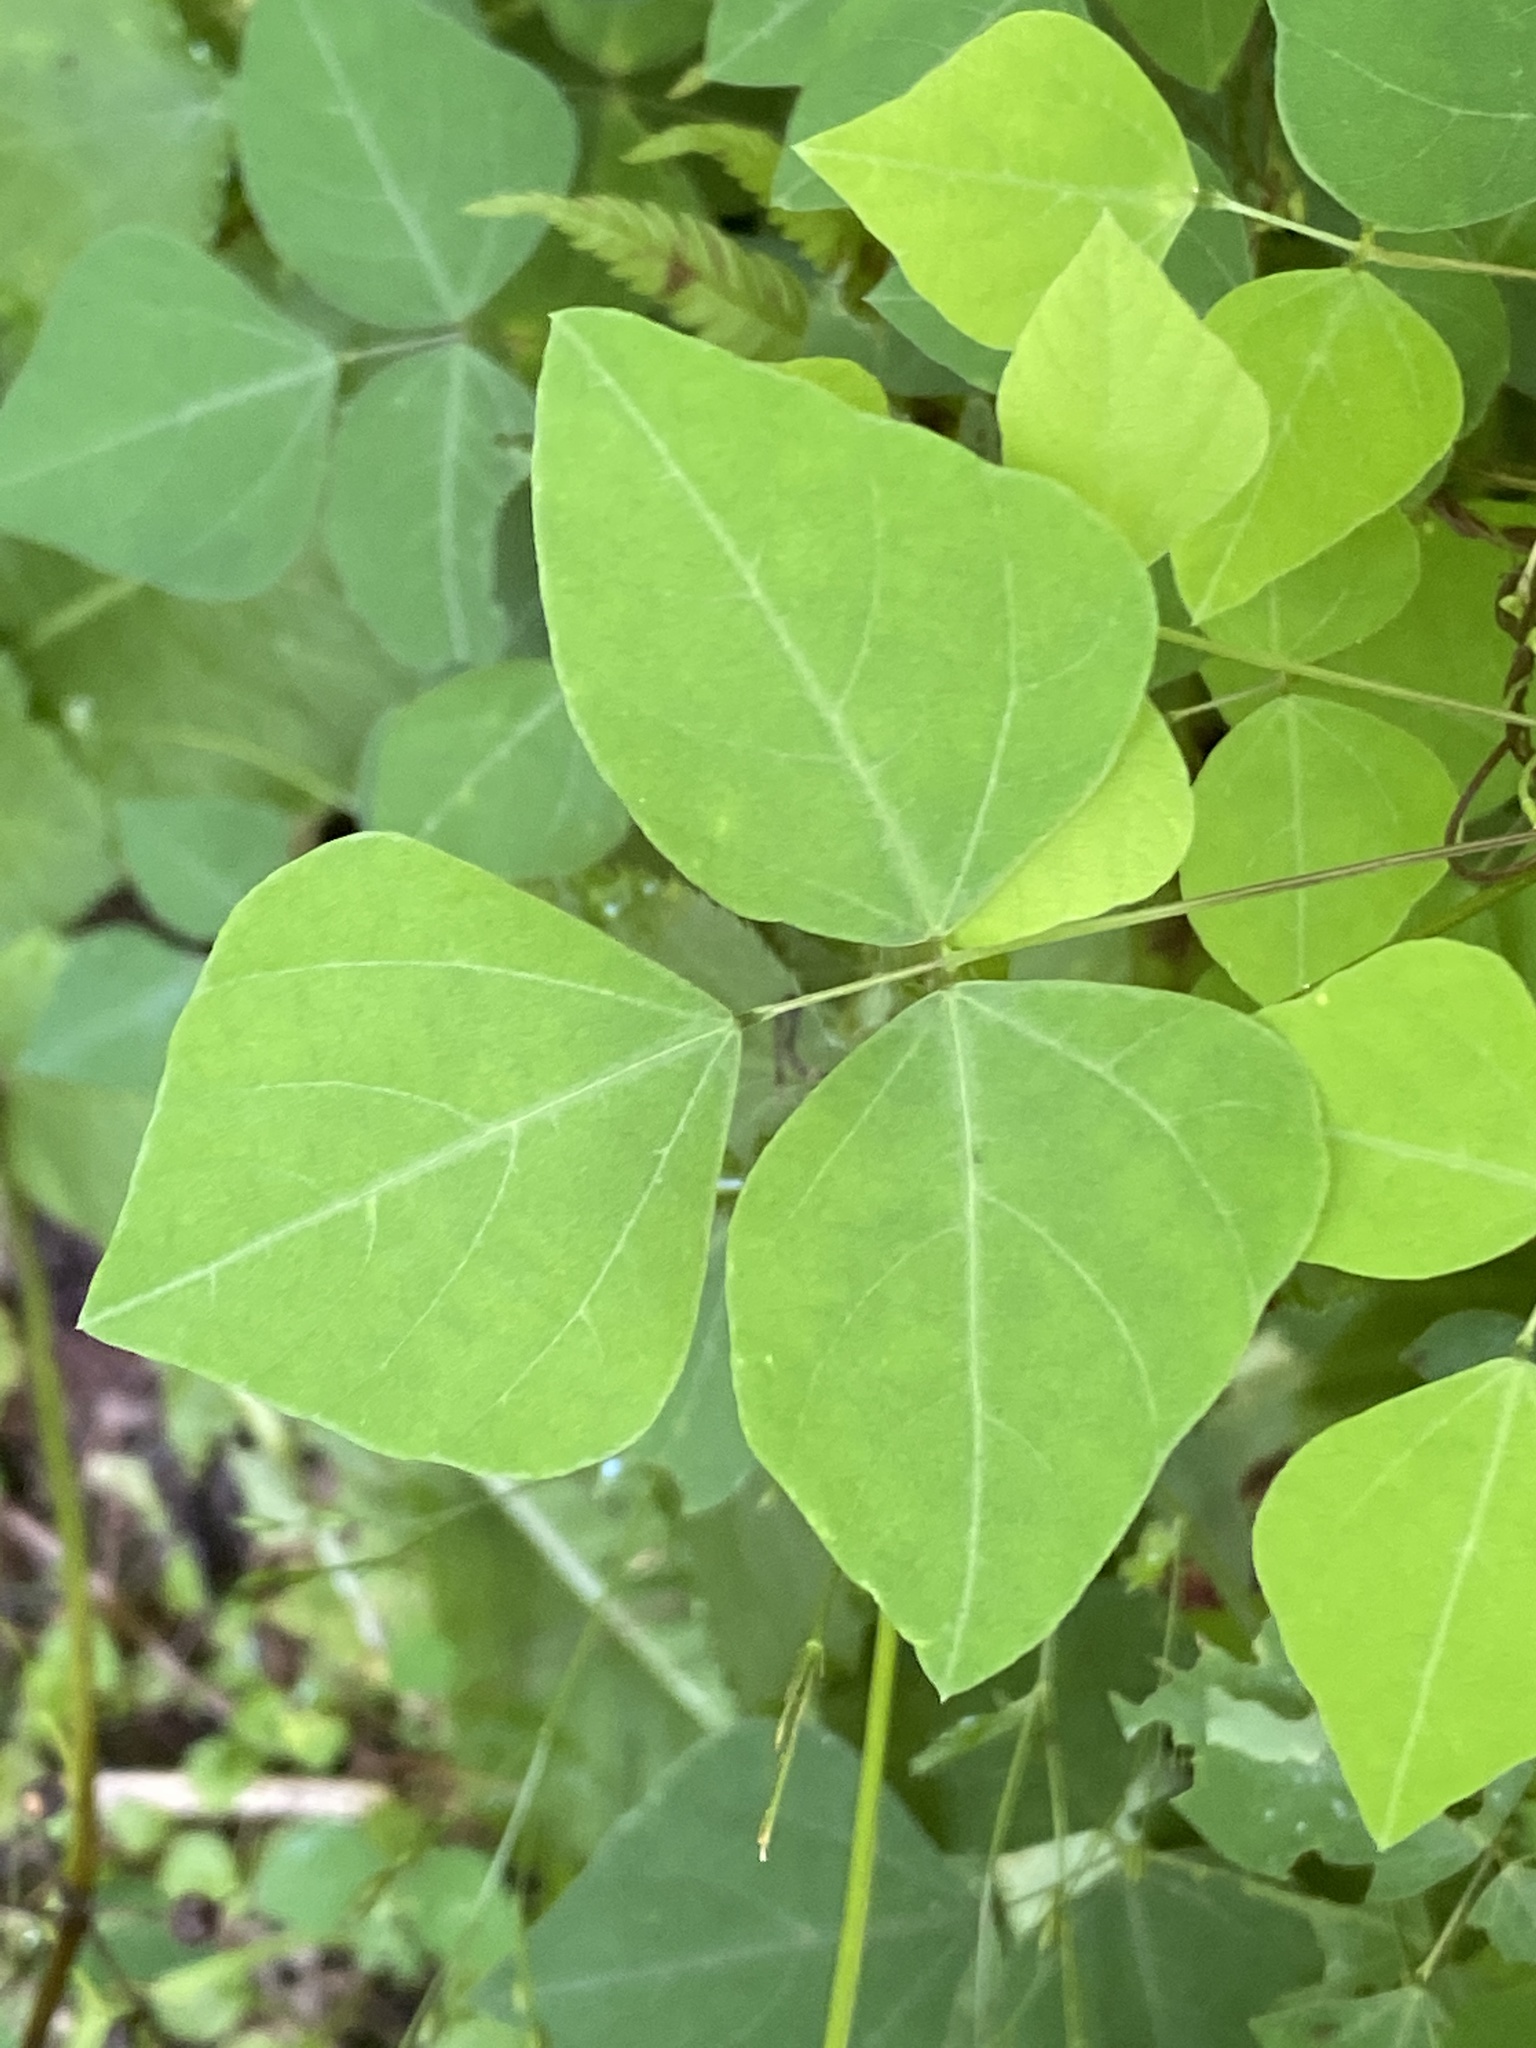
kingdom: Plantae
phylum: Tracheophyta
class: Magnoliopsida
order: Fabales
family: Fabaceae
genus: Amphicarpaea
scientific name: Amphicarpaea bracteata
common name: American hog peanut
